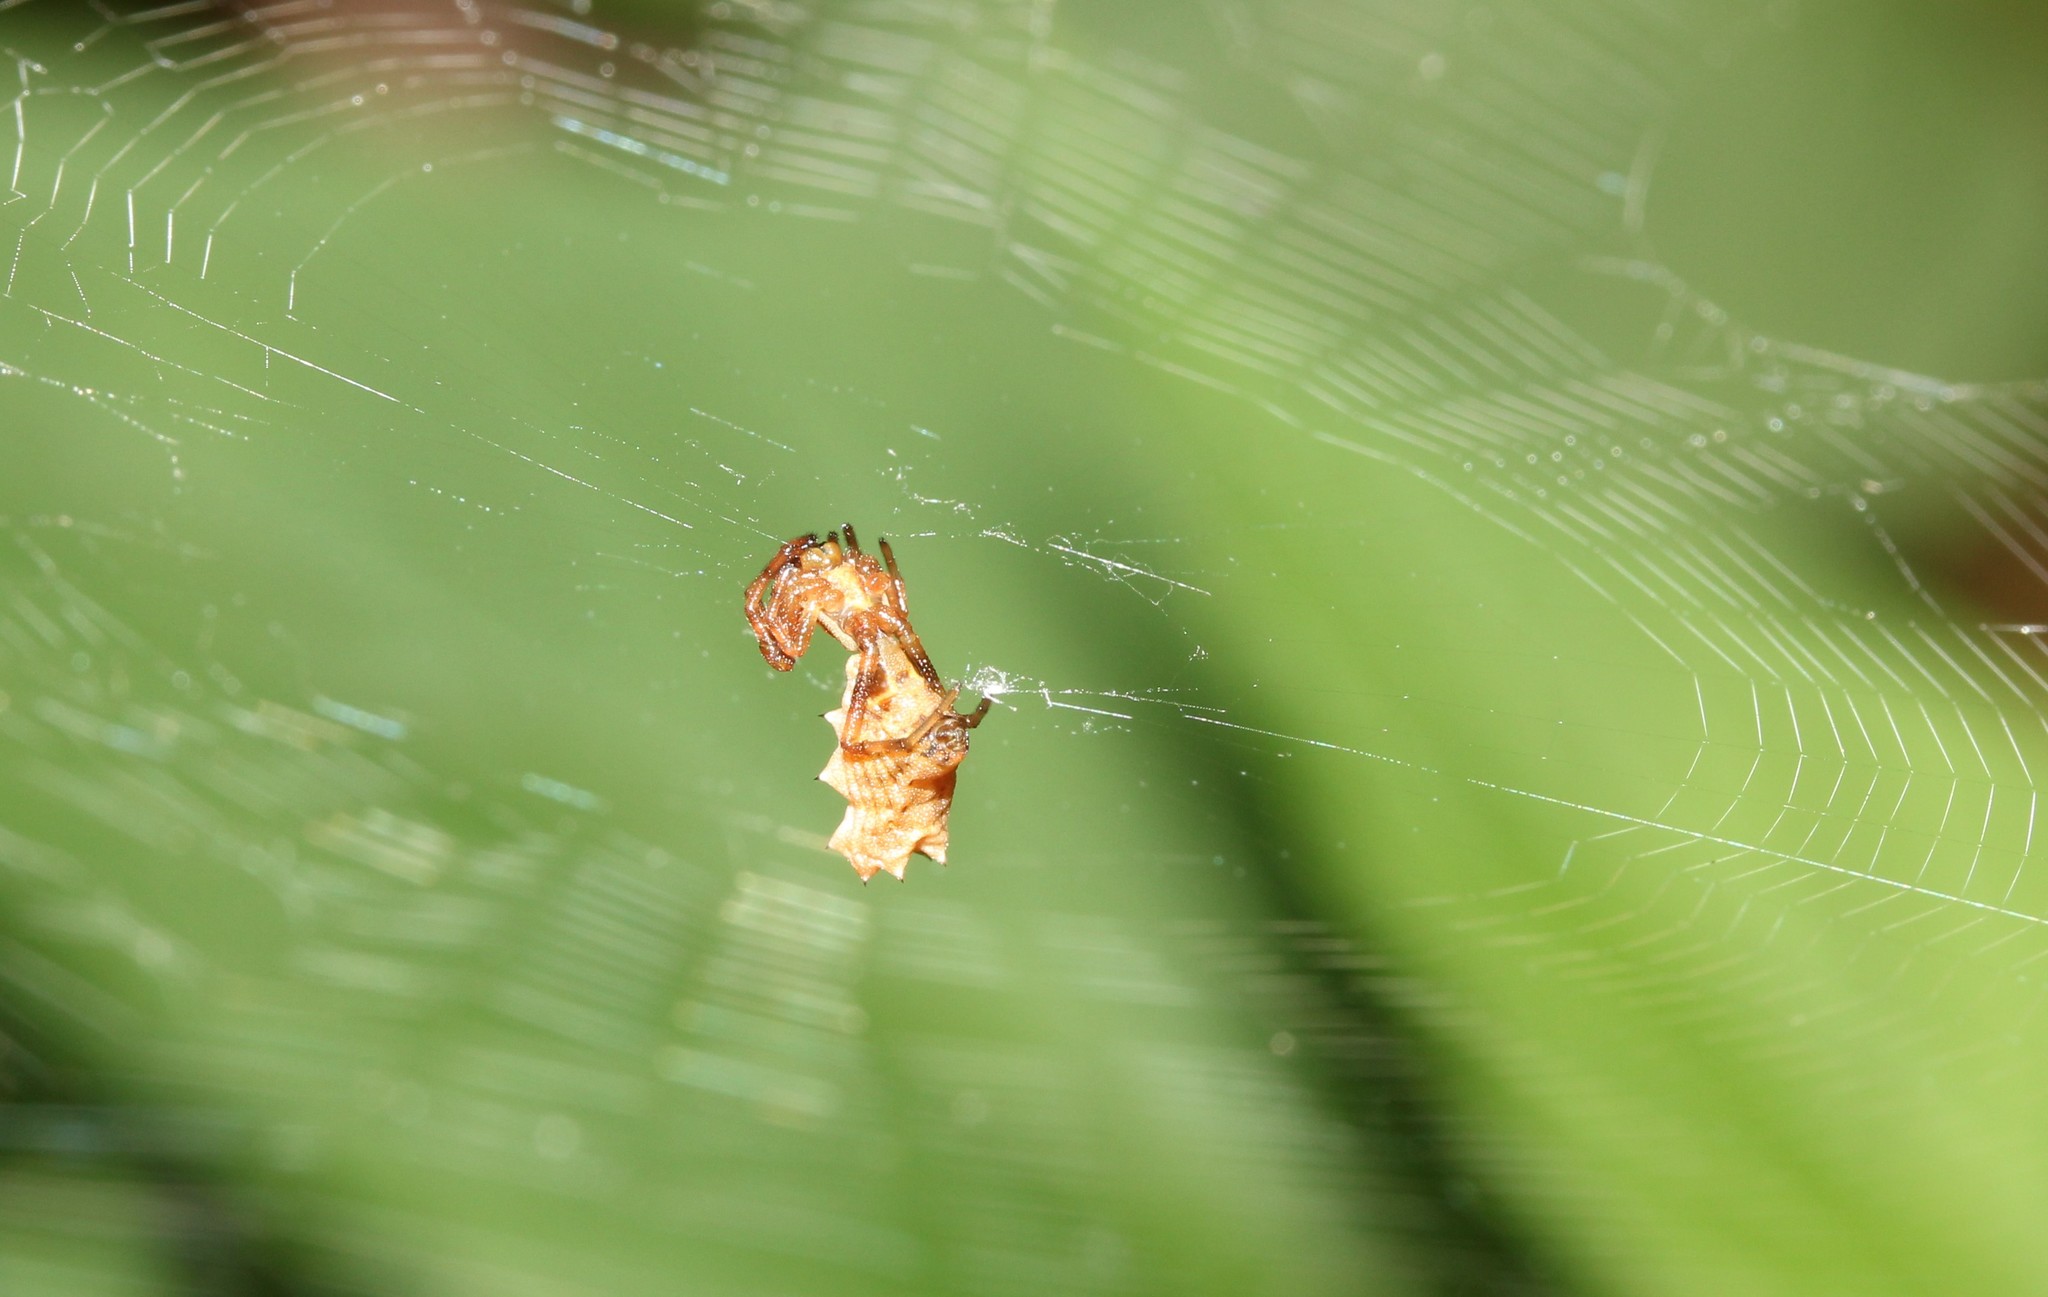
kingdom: Animalia
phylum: Arthropoda
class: Arachnida
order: Araneae
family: Araneidae
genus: Micrathena
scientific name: Micrathena gracilis
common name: Orb weavers
